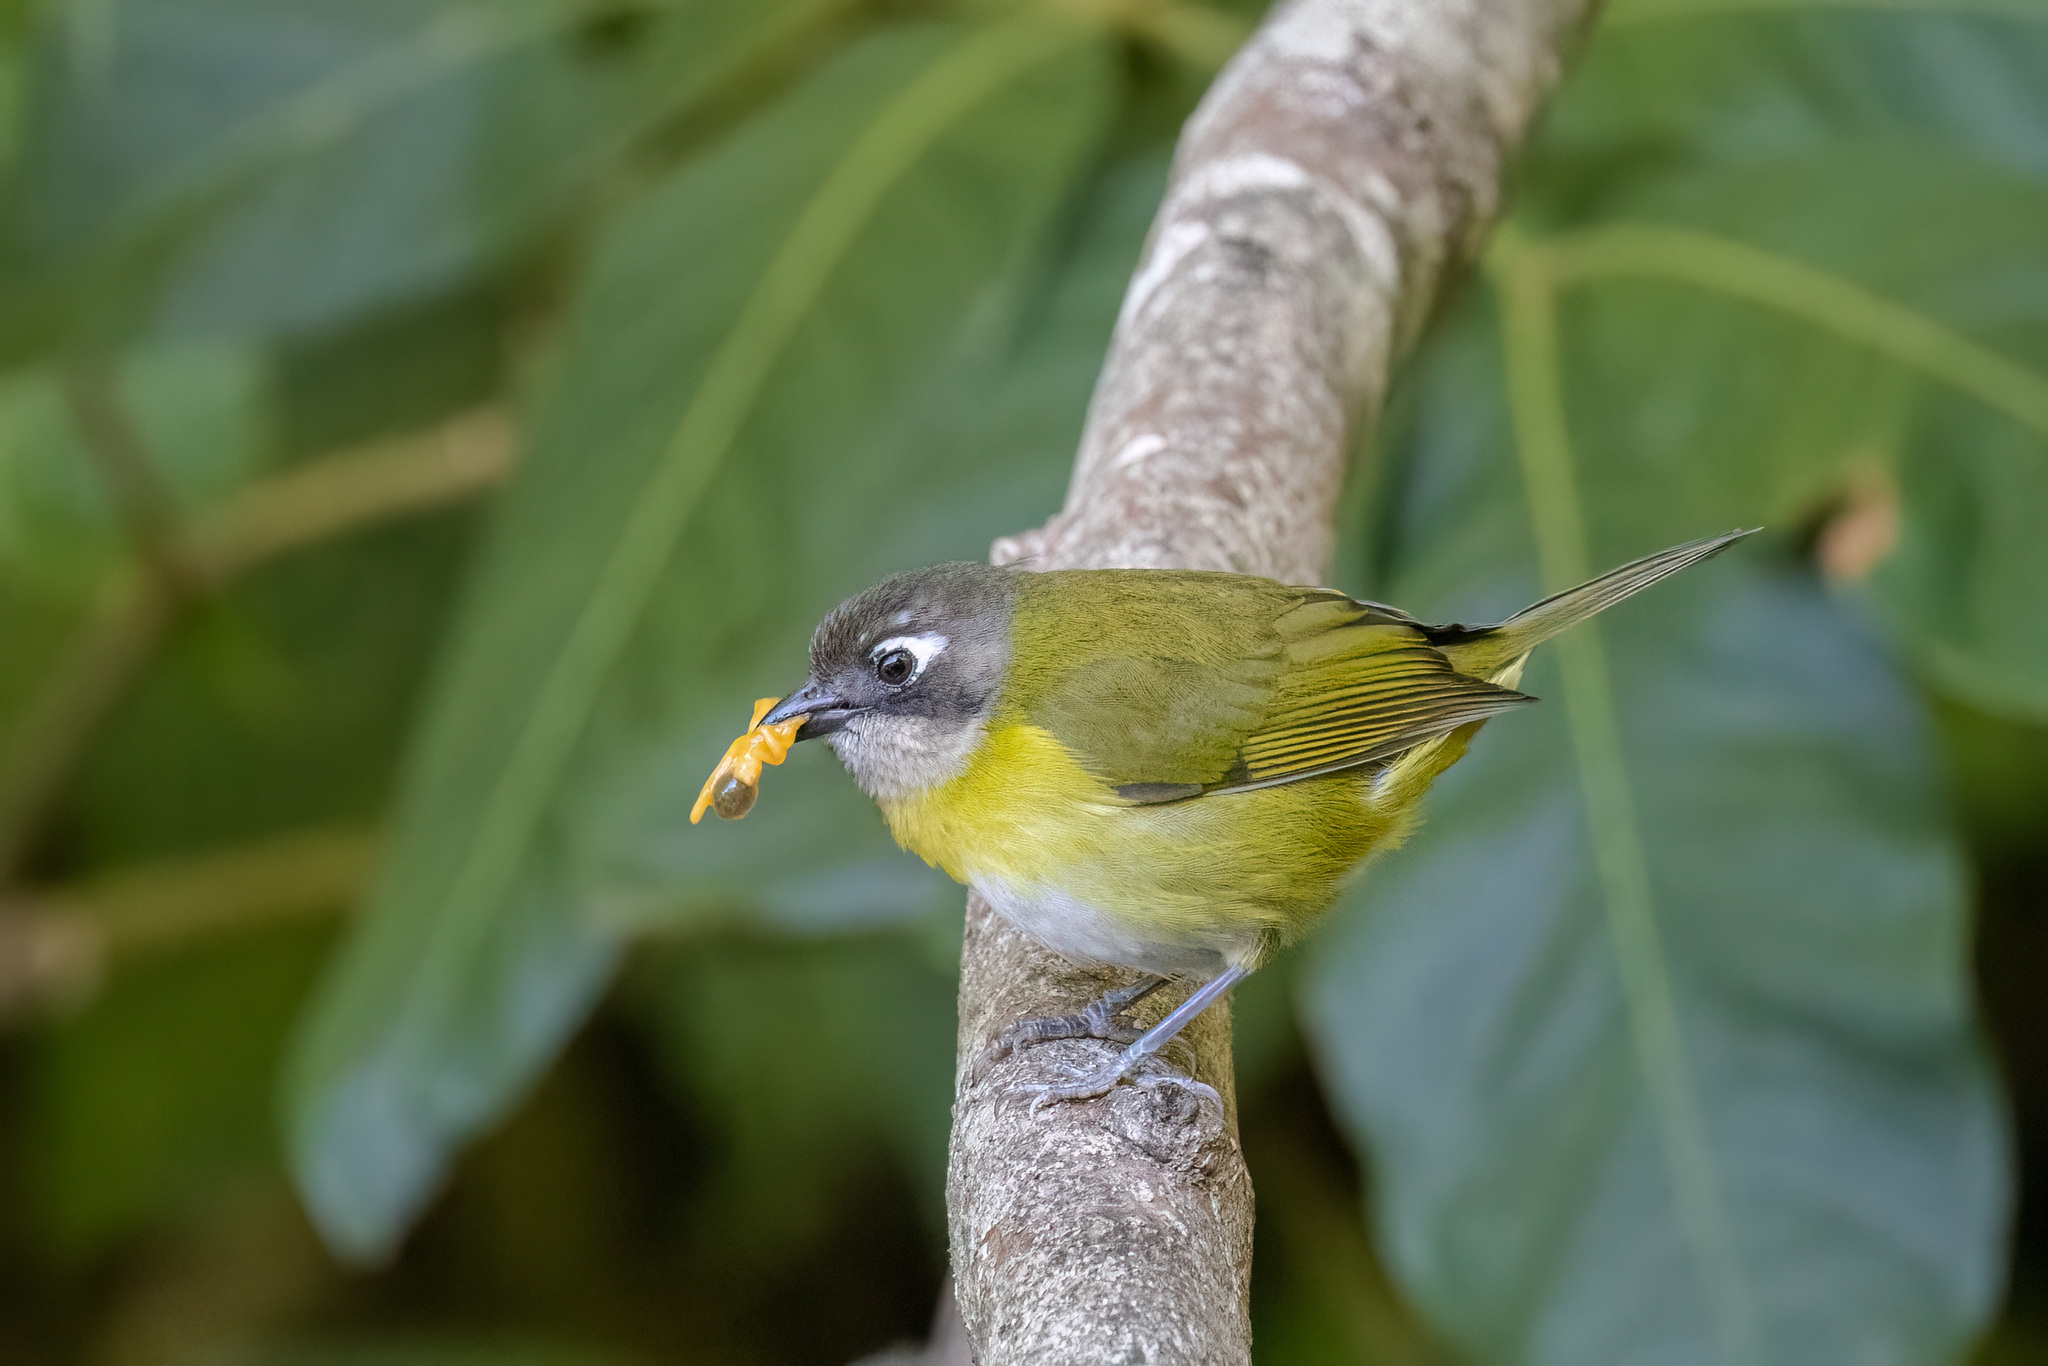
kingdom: Animalia
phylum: Chordata
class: Aves
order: Passeriformes
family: Passerellidae
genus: Chlorospingus
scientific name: Chlorospingus flavopectus
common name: Common chlorospingus
